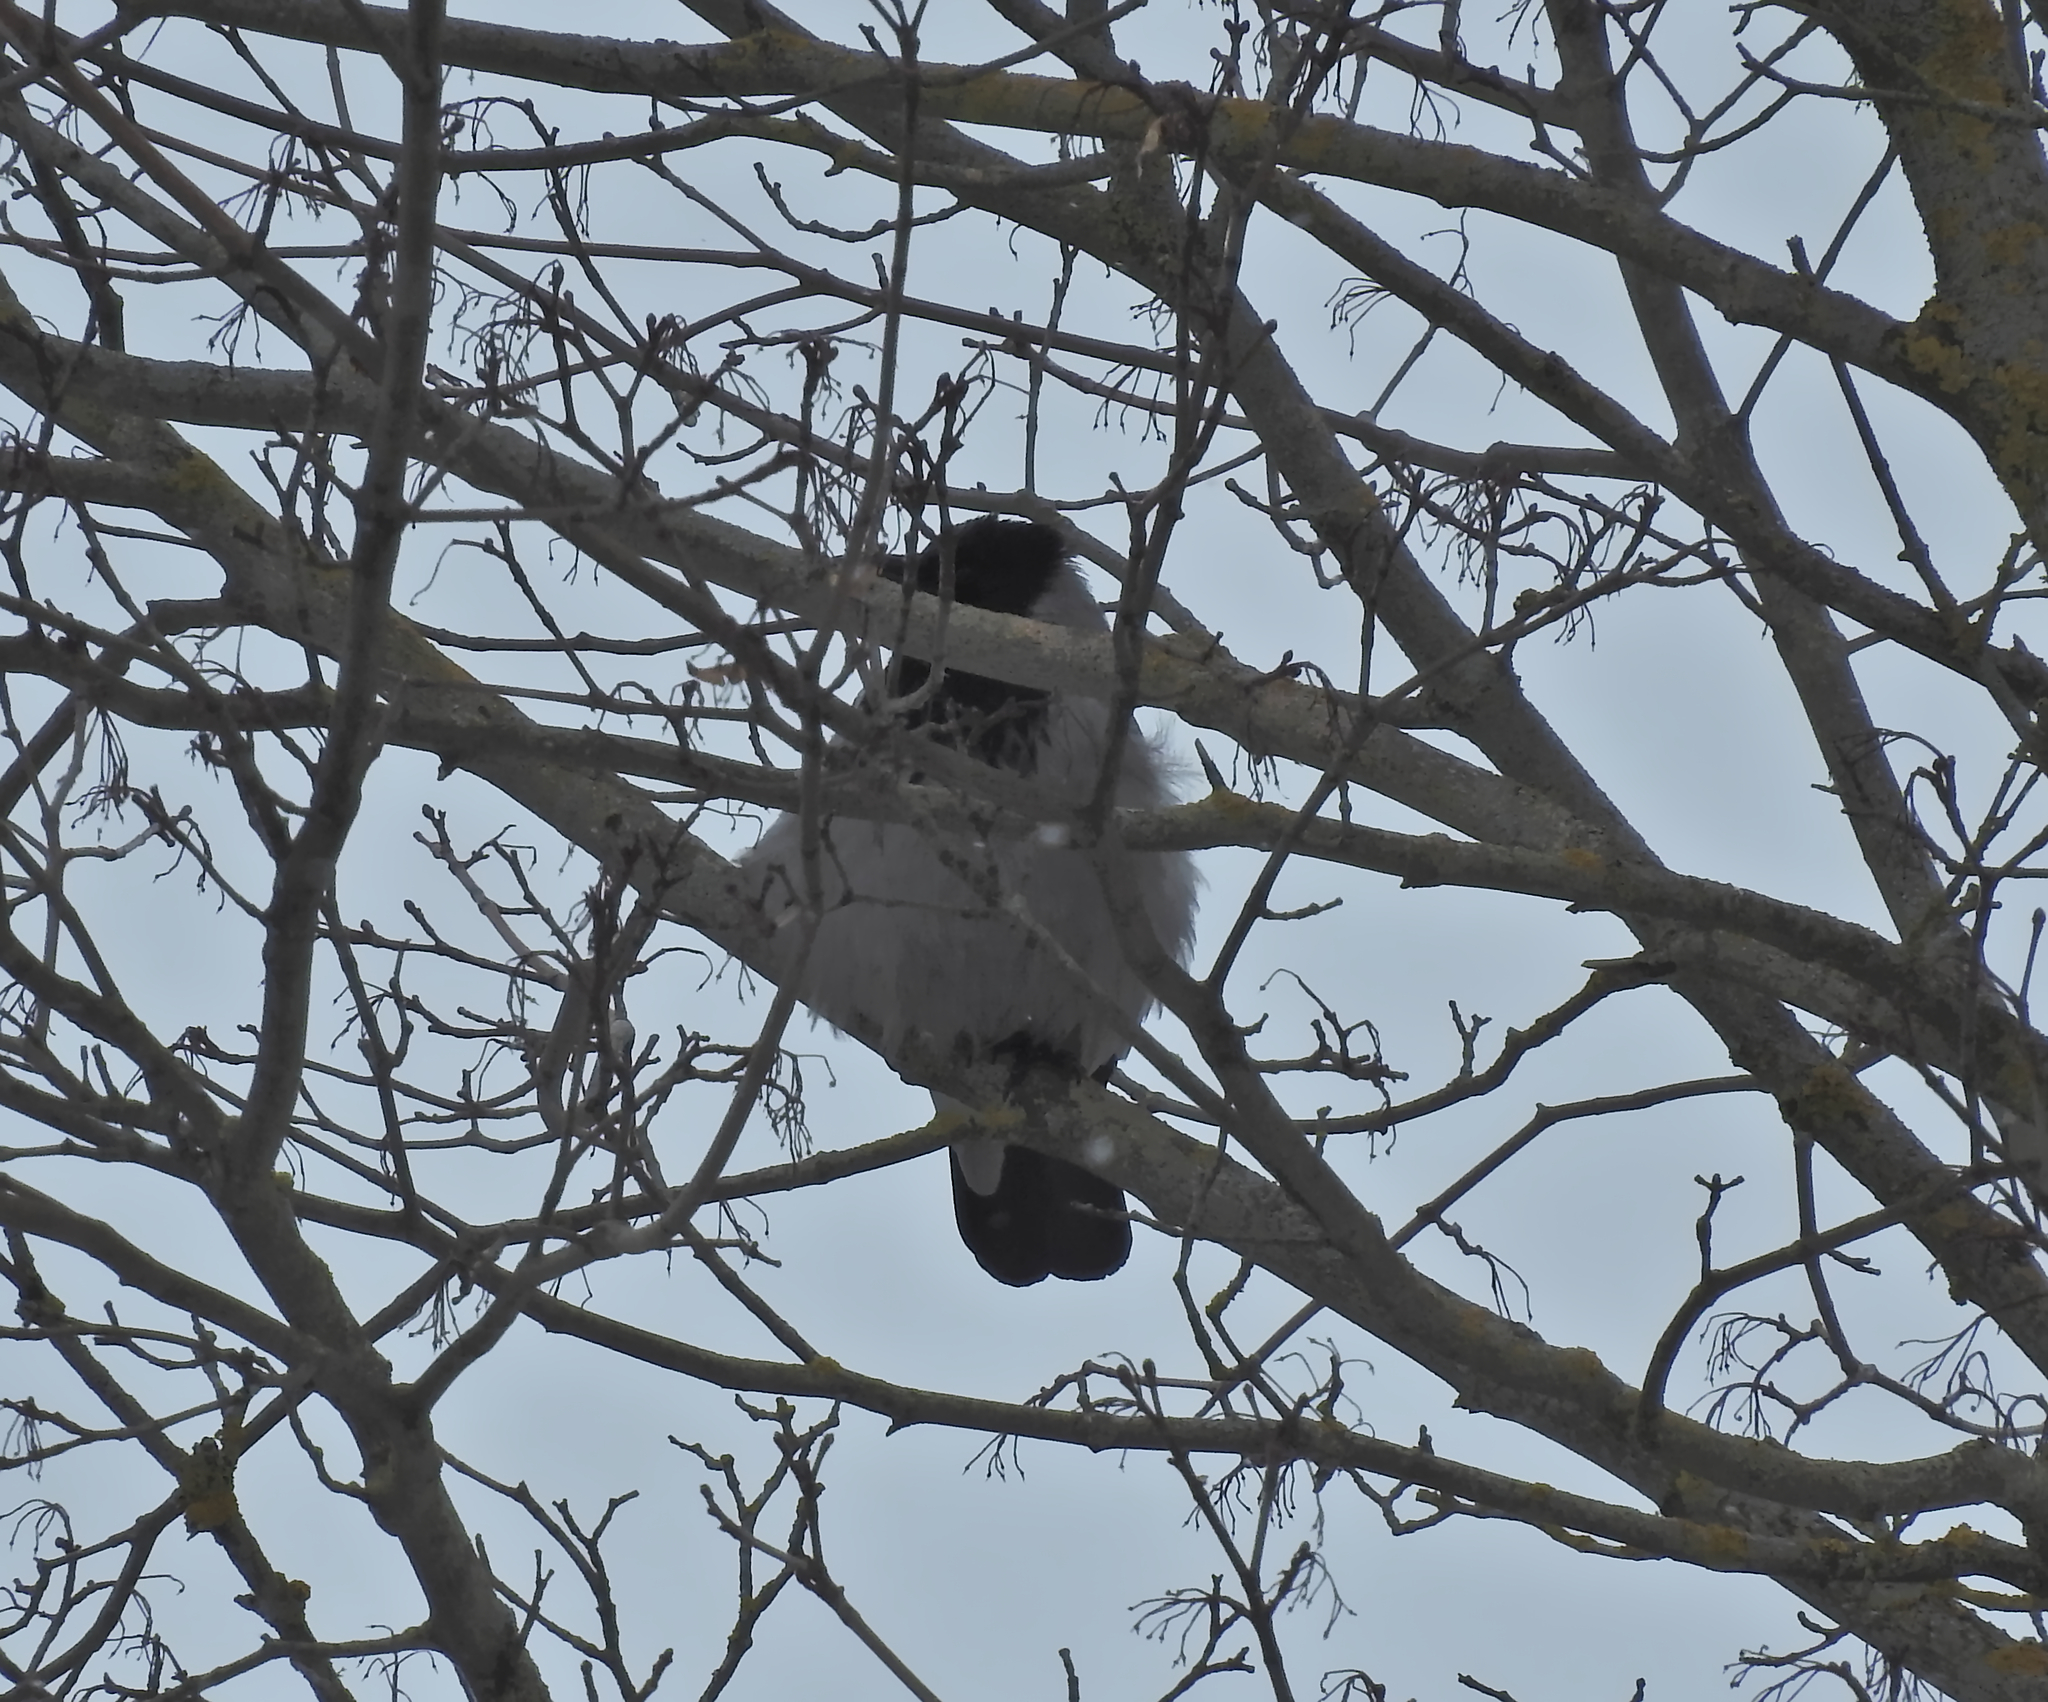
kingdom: Animalia
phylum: Chordata
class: Aves
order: Passeriformes
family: Corvidae
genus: Corvus
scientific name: Corvus cornix
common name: Hooded crow
